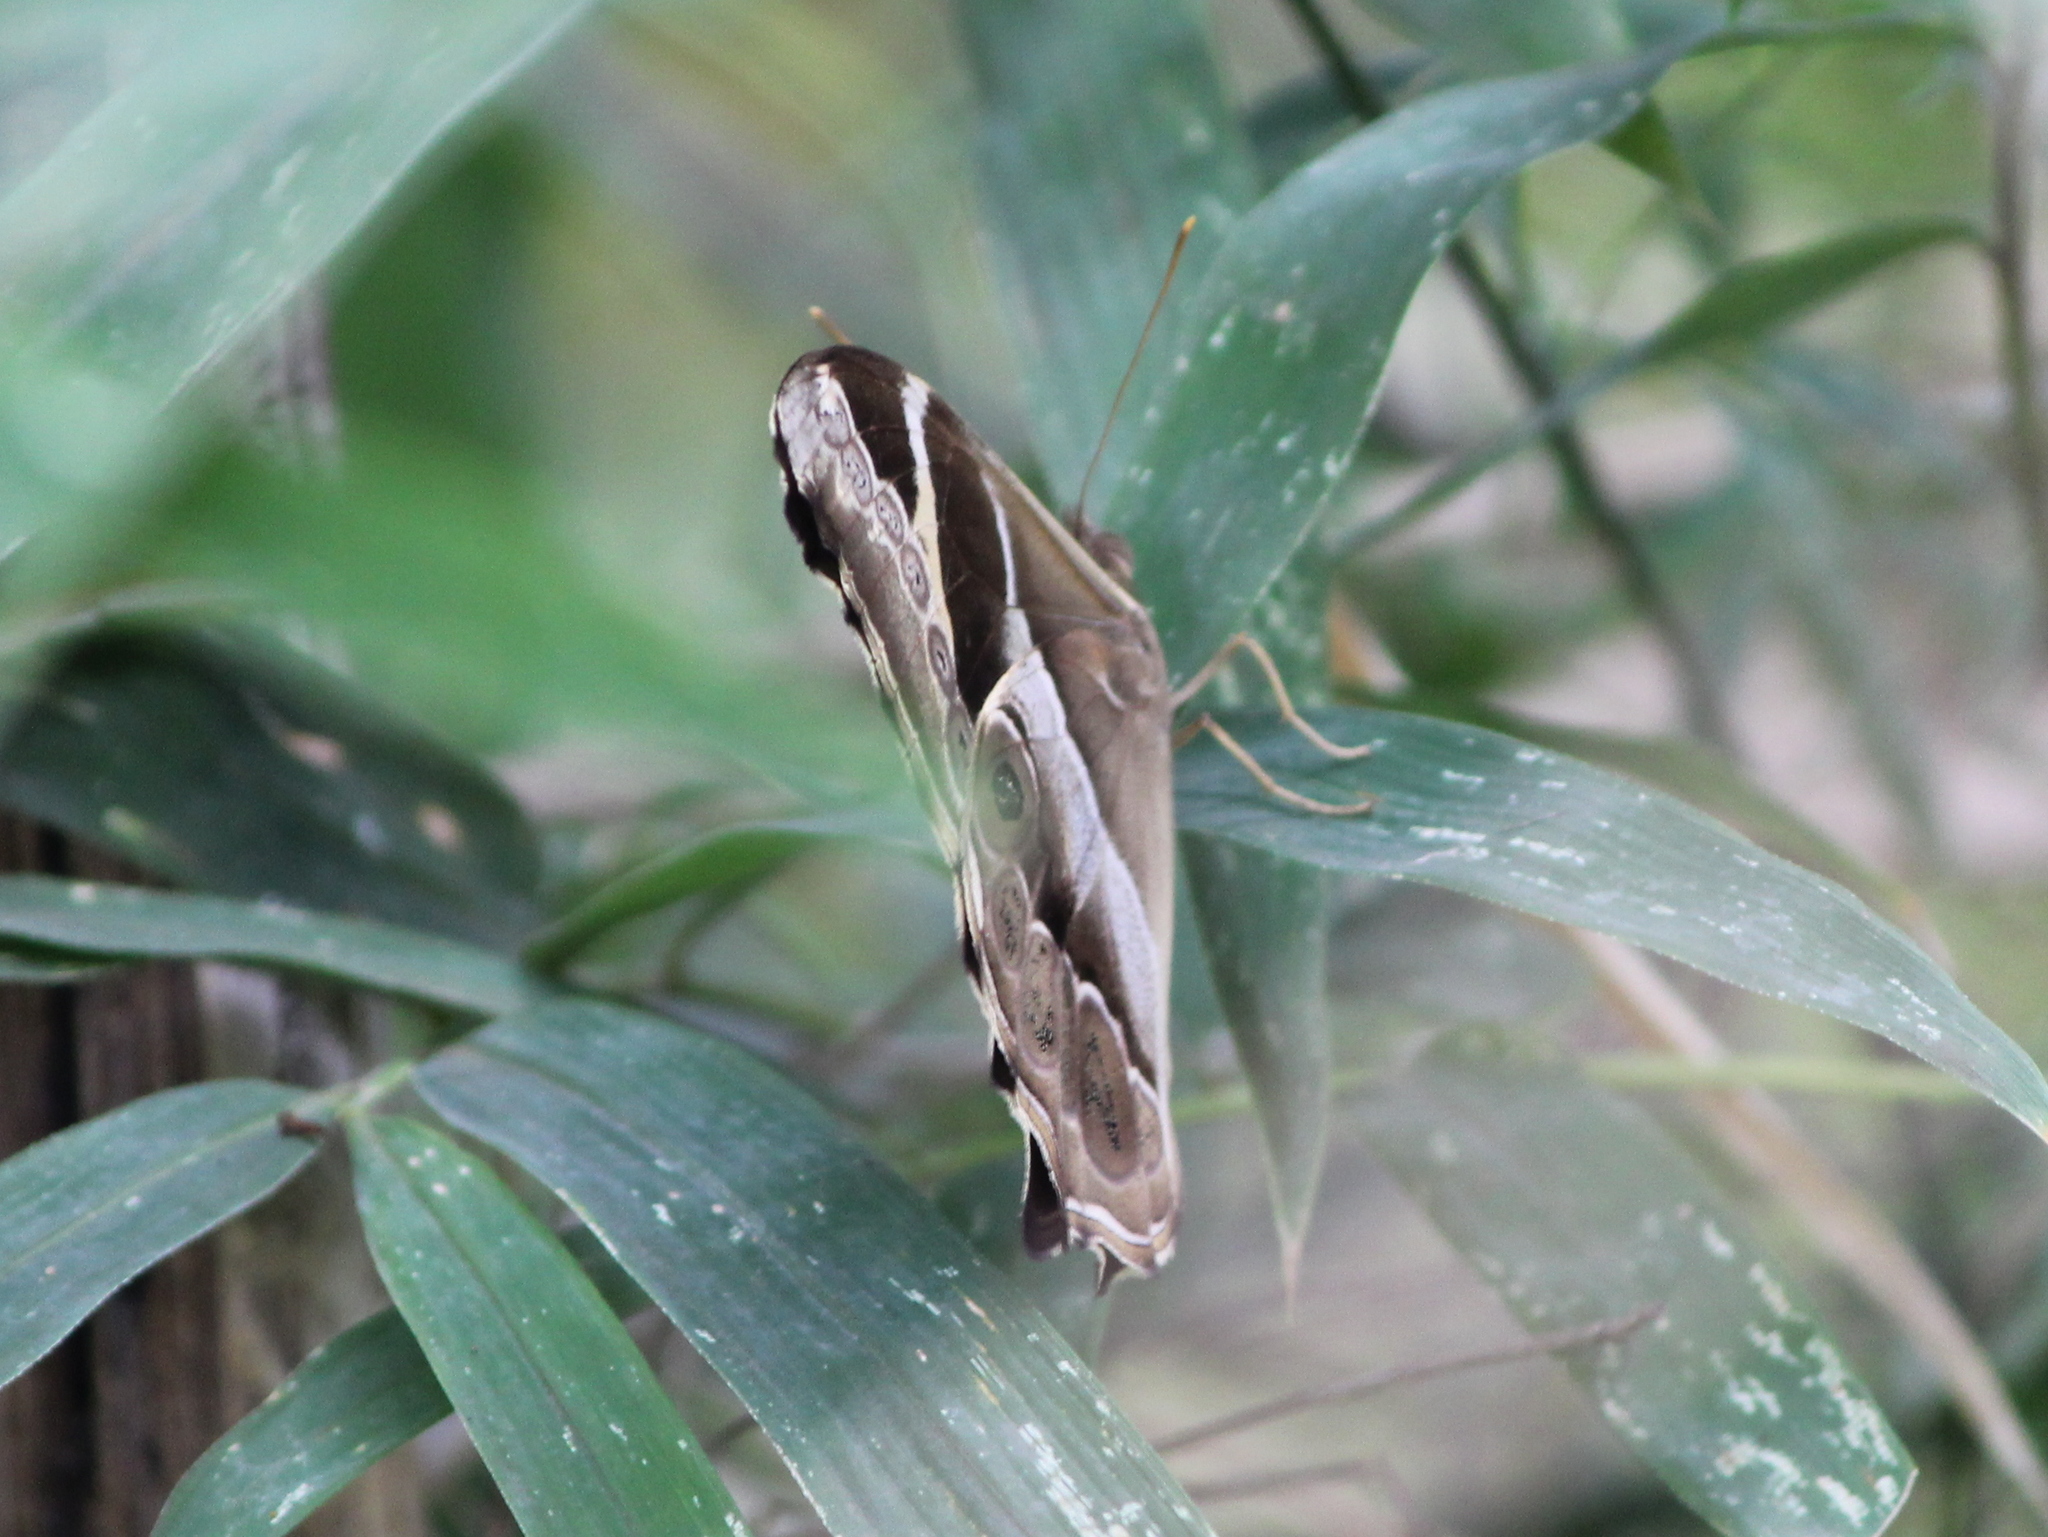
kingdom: Animalia
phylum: Arthropoda
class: Insecta
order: Lepidoptera
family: Nymphalidae
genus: Lethe
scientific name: Lethe europa
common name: Bamboo treebrown
